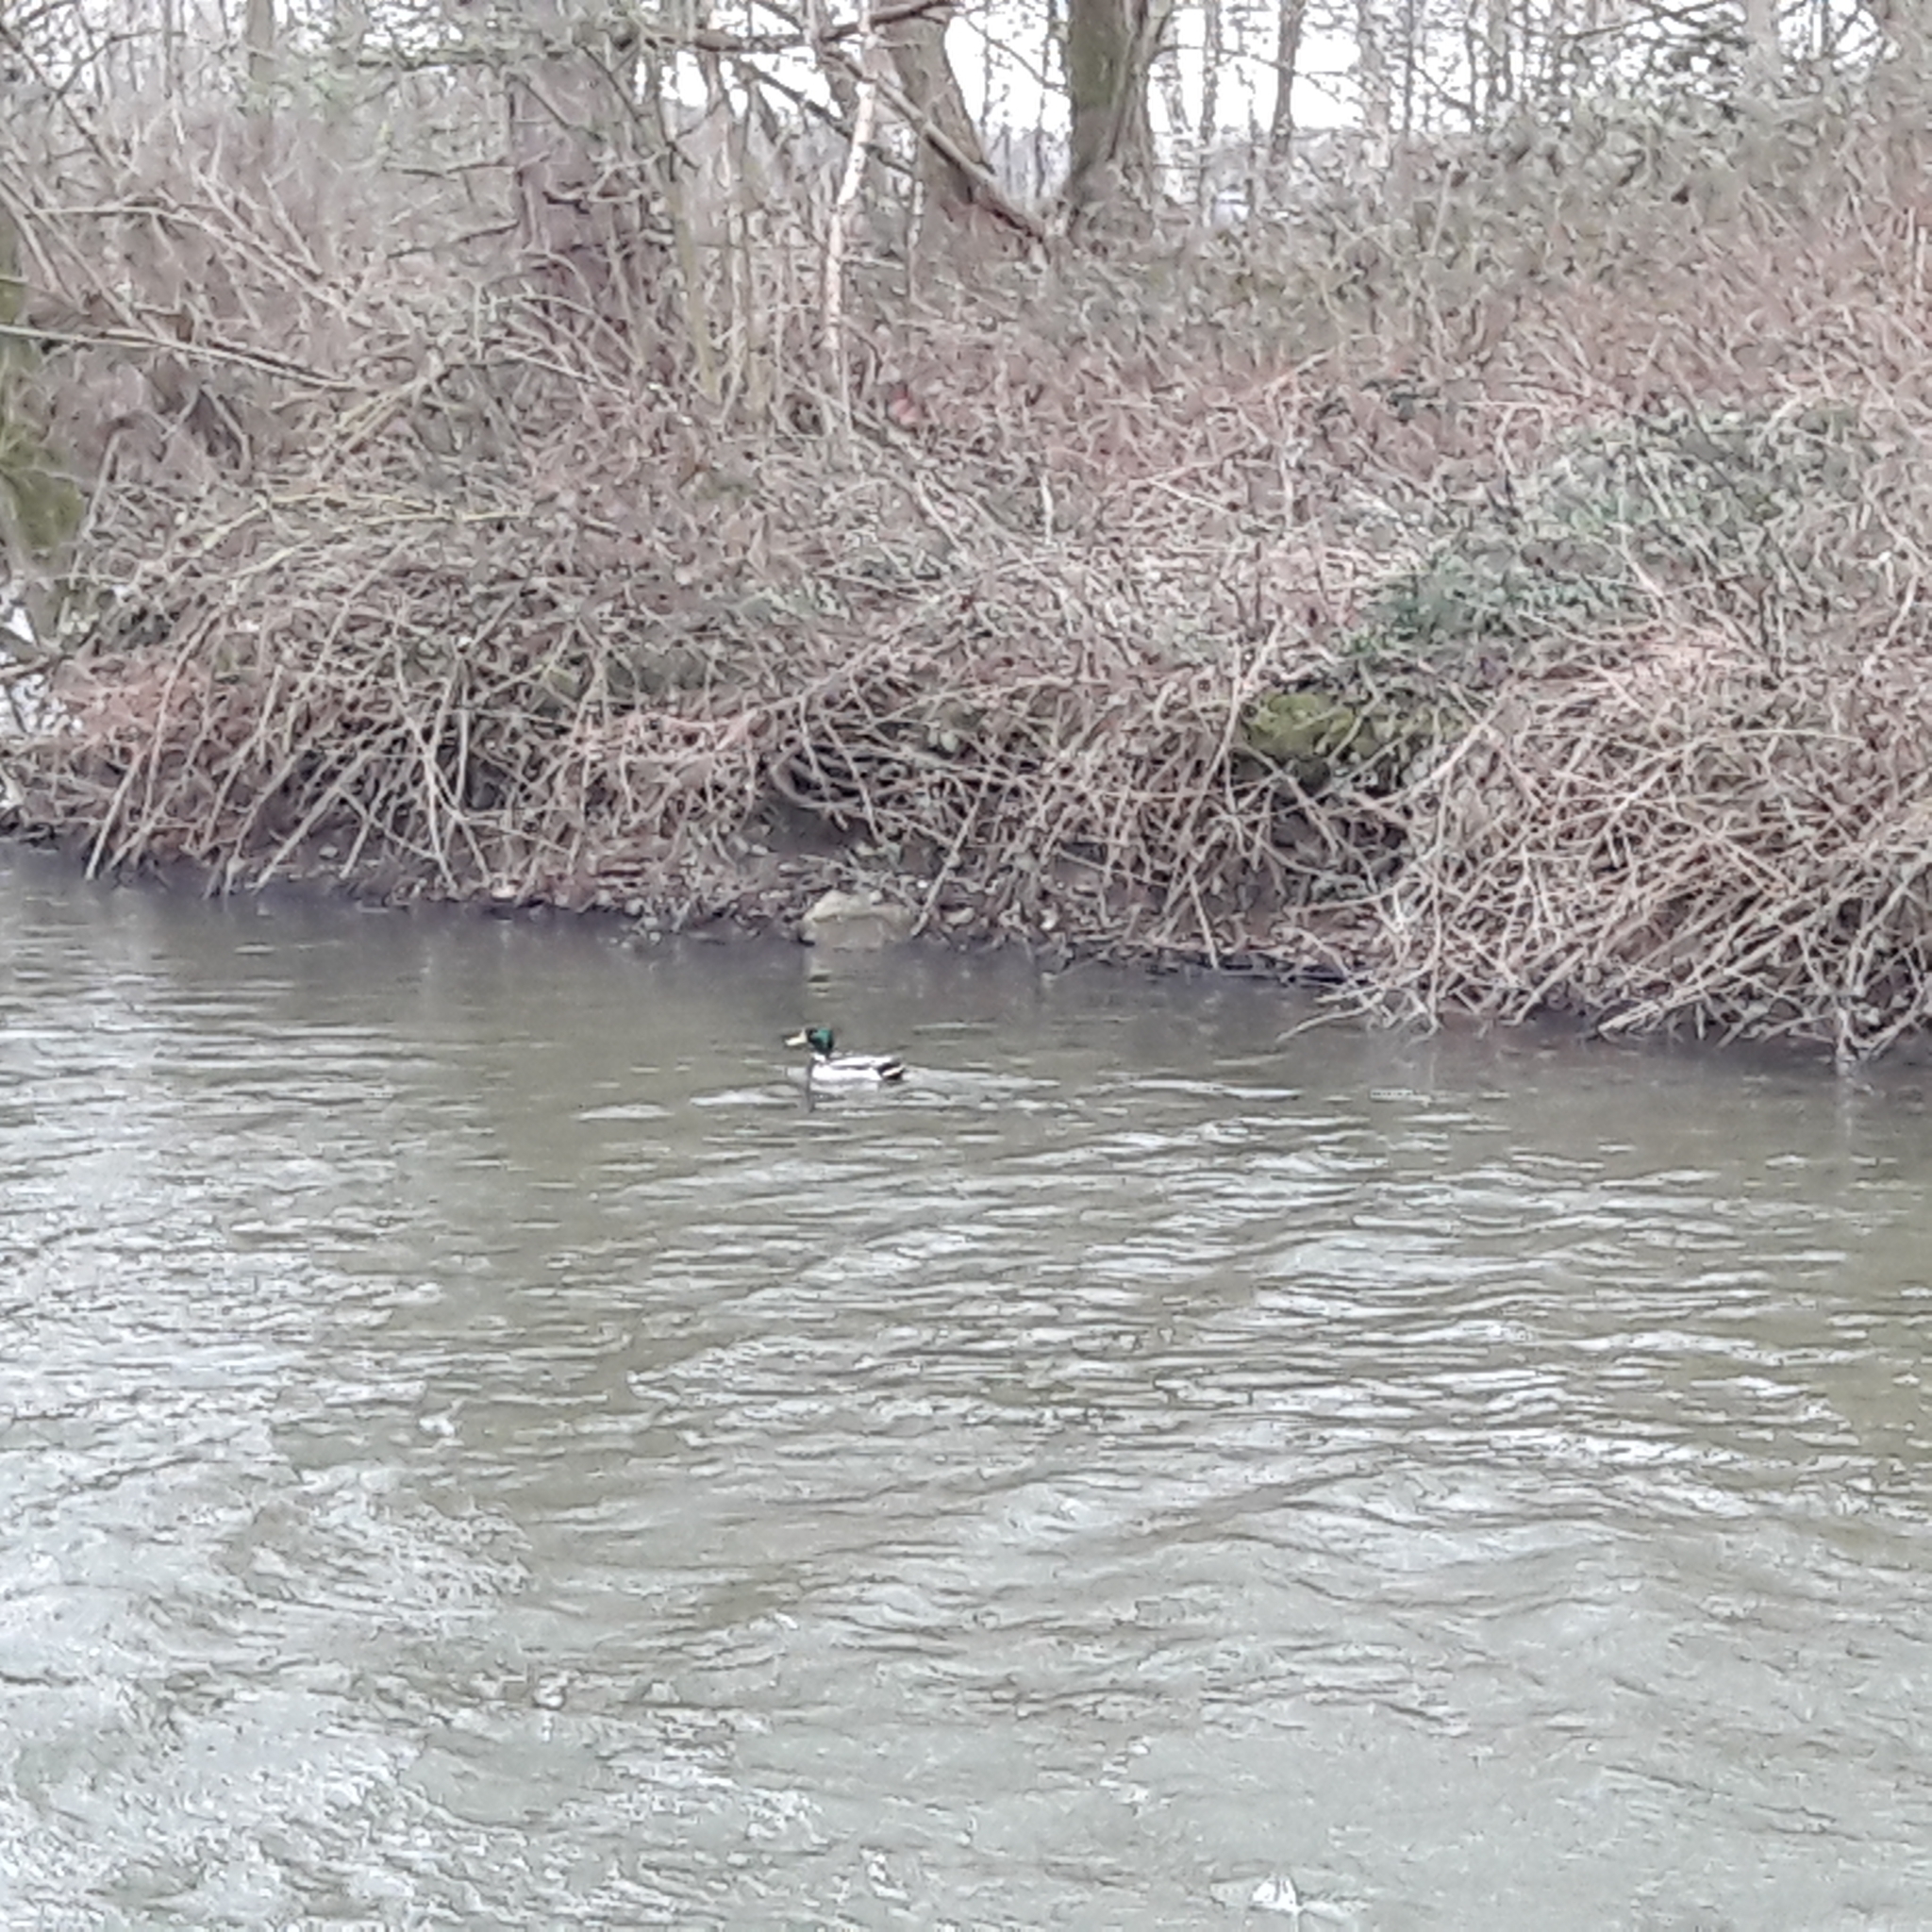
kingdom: Animalia
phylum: Chordata
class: Aves
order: Anseriformes
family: Anatidae
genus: Anas
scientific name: Anas platyrhynchos
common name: Mallard
